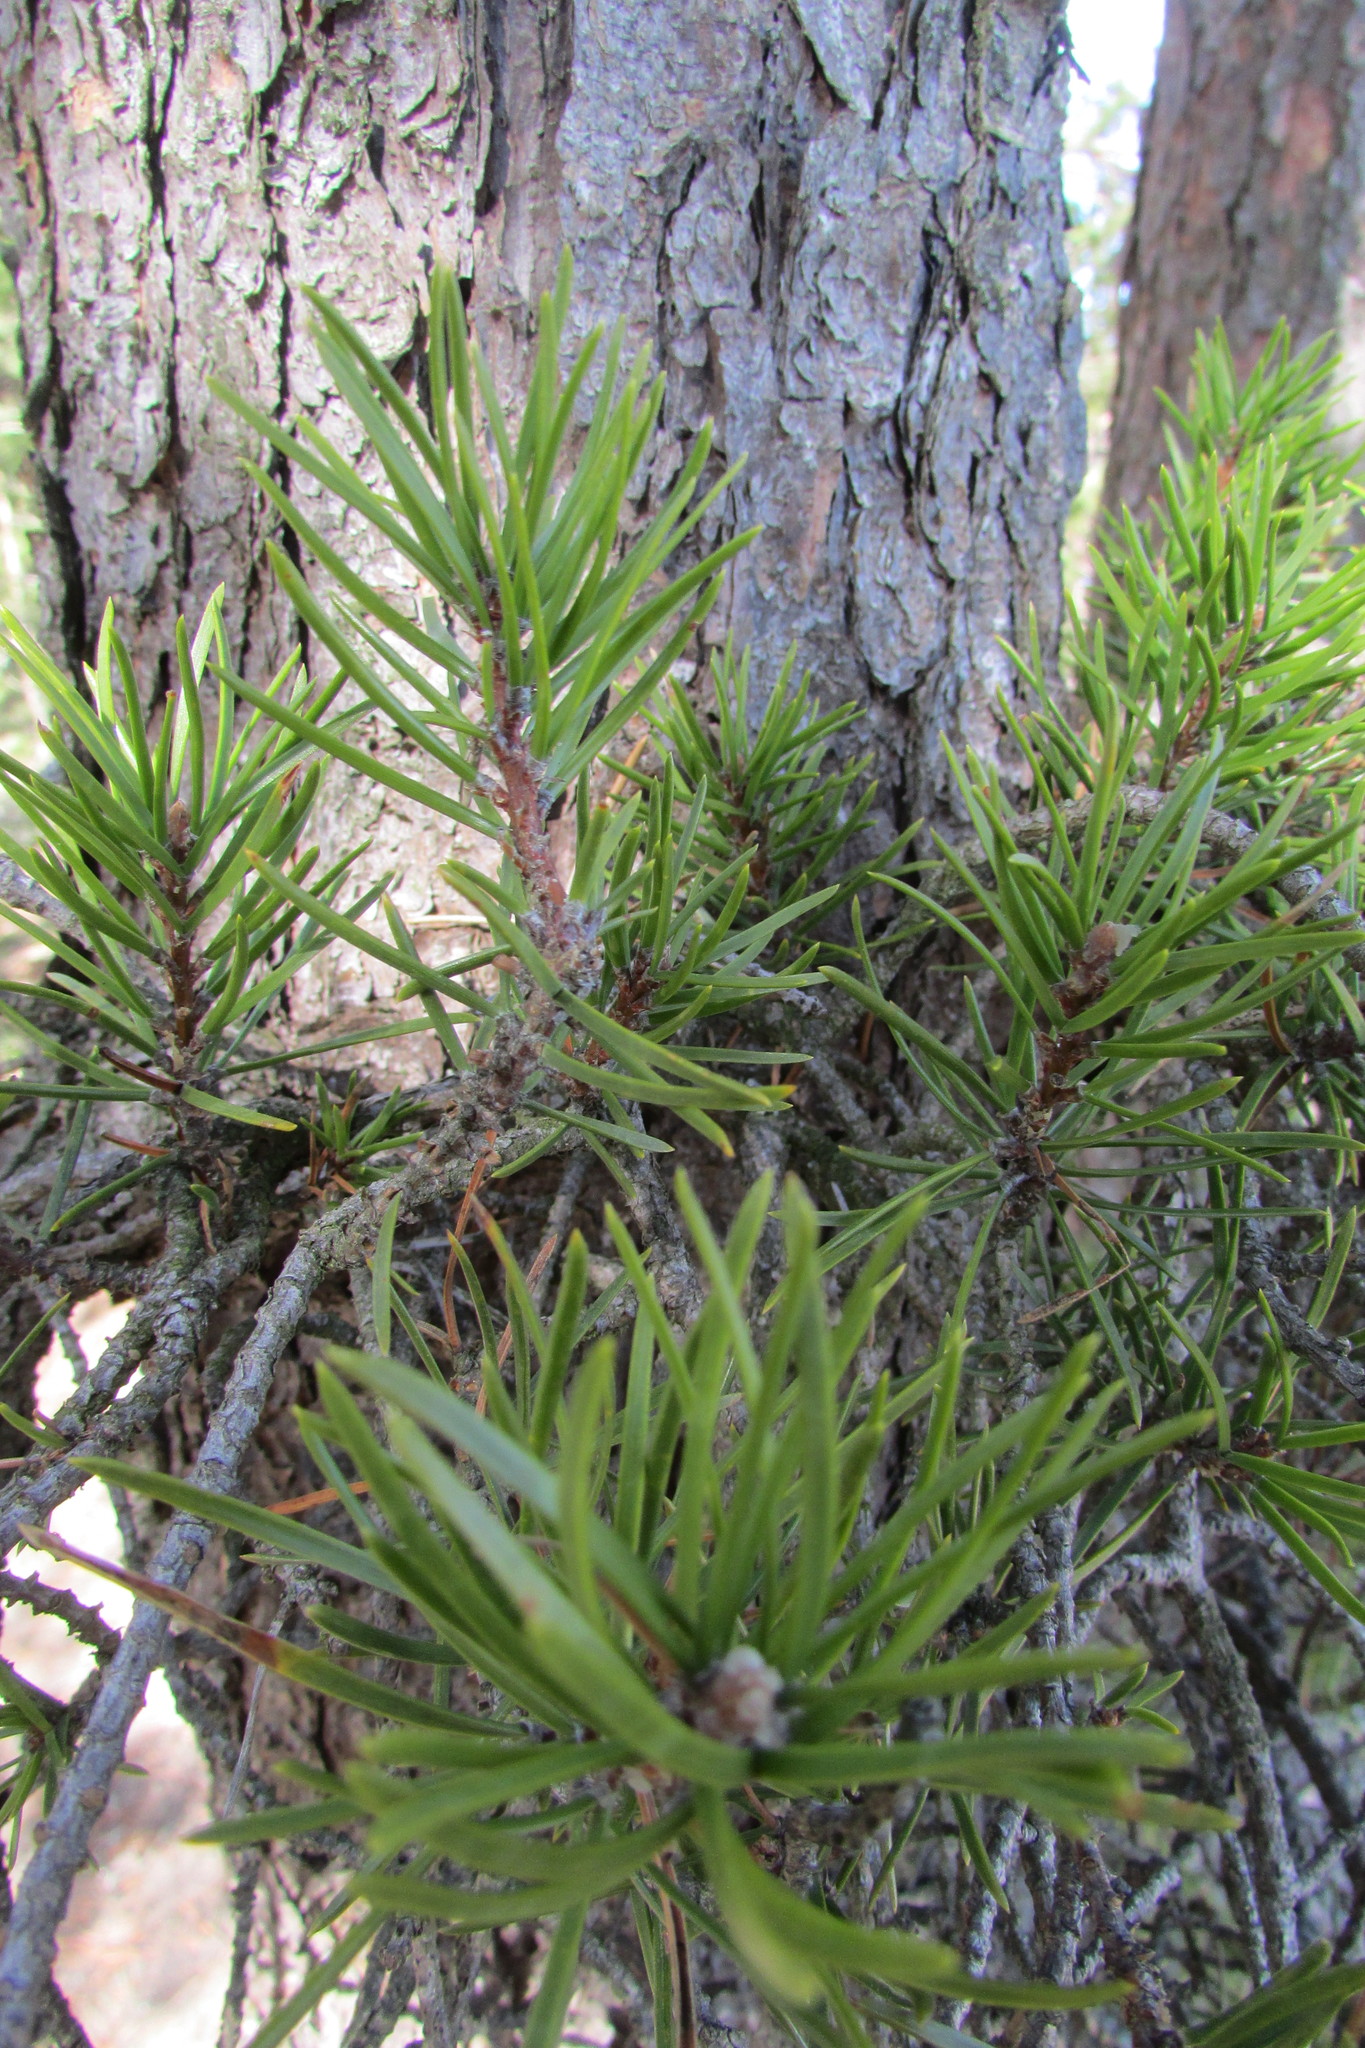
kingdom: Plantae
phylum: Tracheophyta
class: Pinopsida
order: Pinales
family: Pinaceae
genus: Pinus
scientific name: Pinus banksiana
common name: Jack pine
